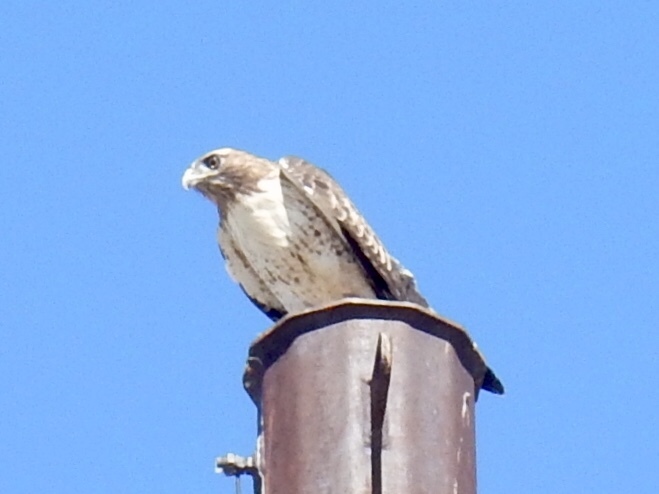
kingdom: Animalia
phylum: Chordata
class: Aves
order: Accipitriformes
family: Accipitridae
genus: Buteo
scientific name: Buteo jamaicensis
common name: Red-tailed hawk
